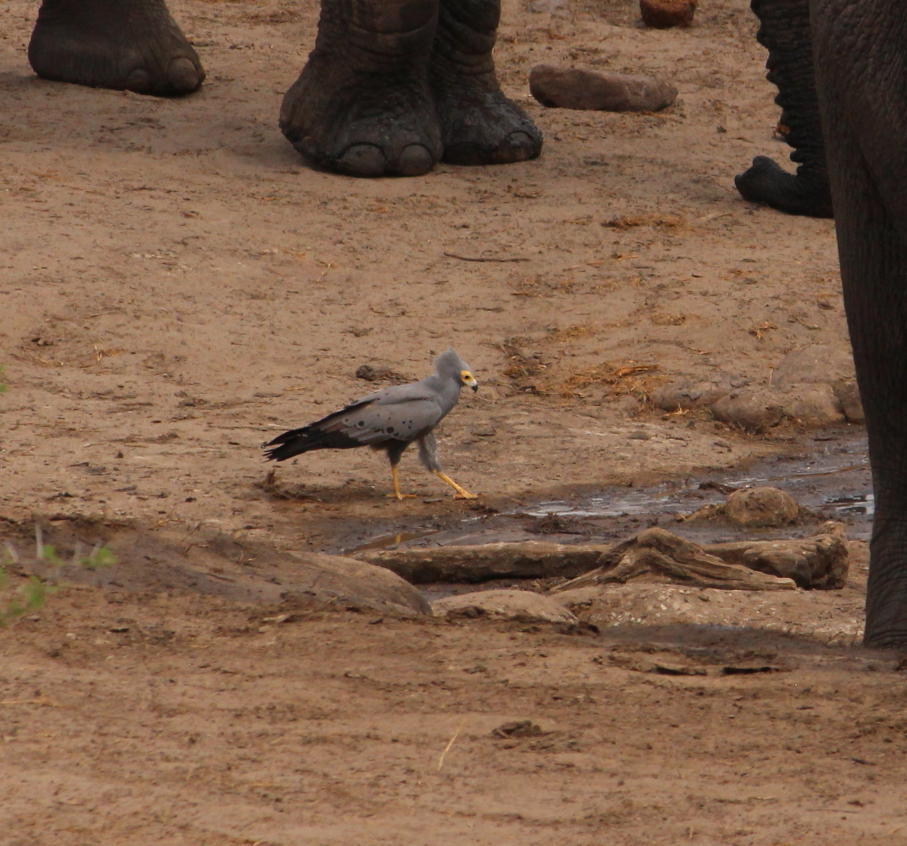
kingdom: Animalia
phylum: Chordata
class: Aves
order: Accipitriformes
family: Accipitridae
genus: Polyboroides
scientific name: Polyboroides typus
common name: African harrier-hawk
